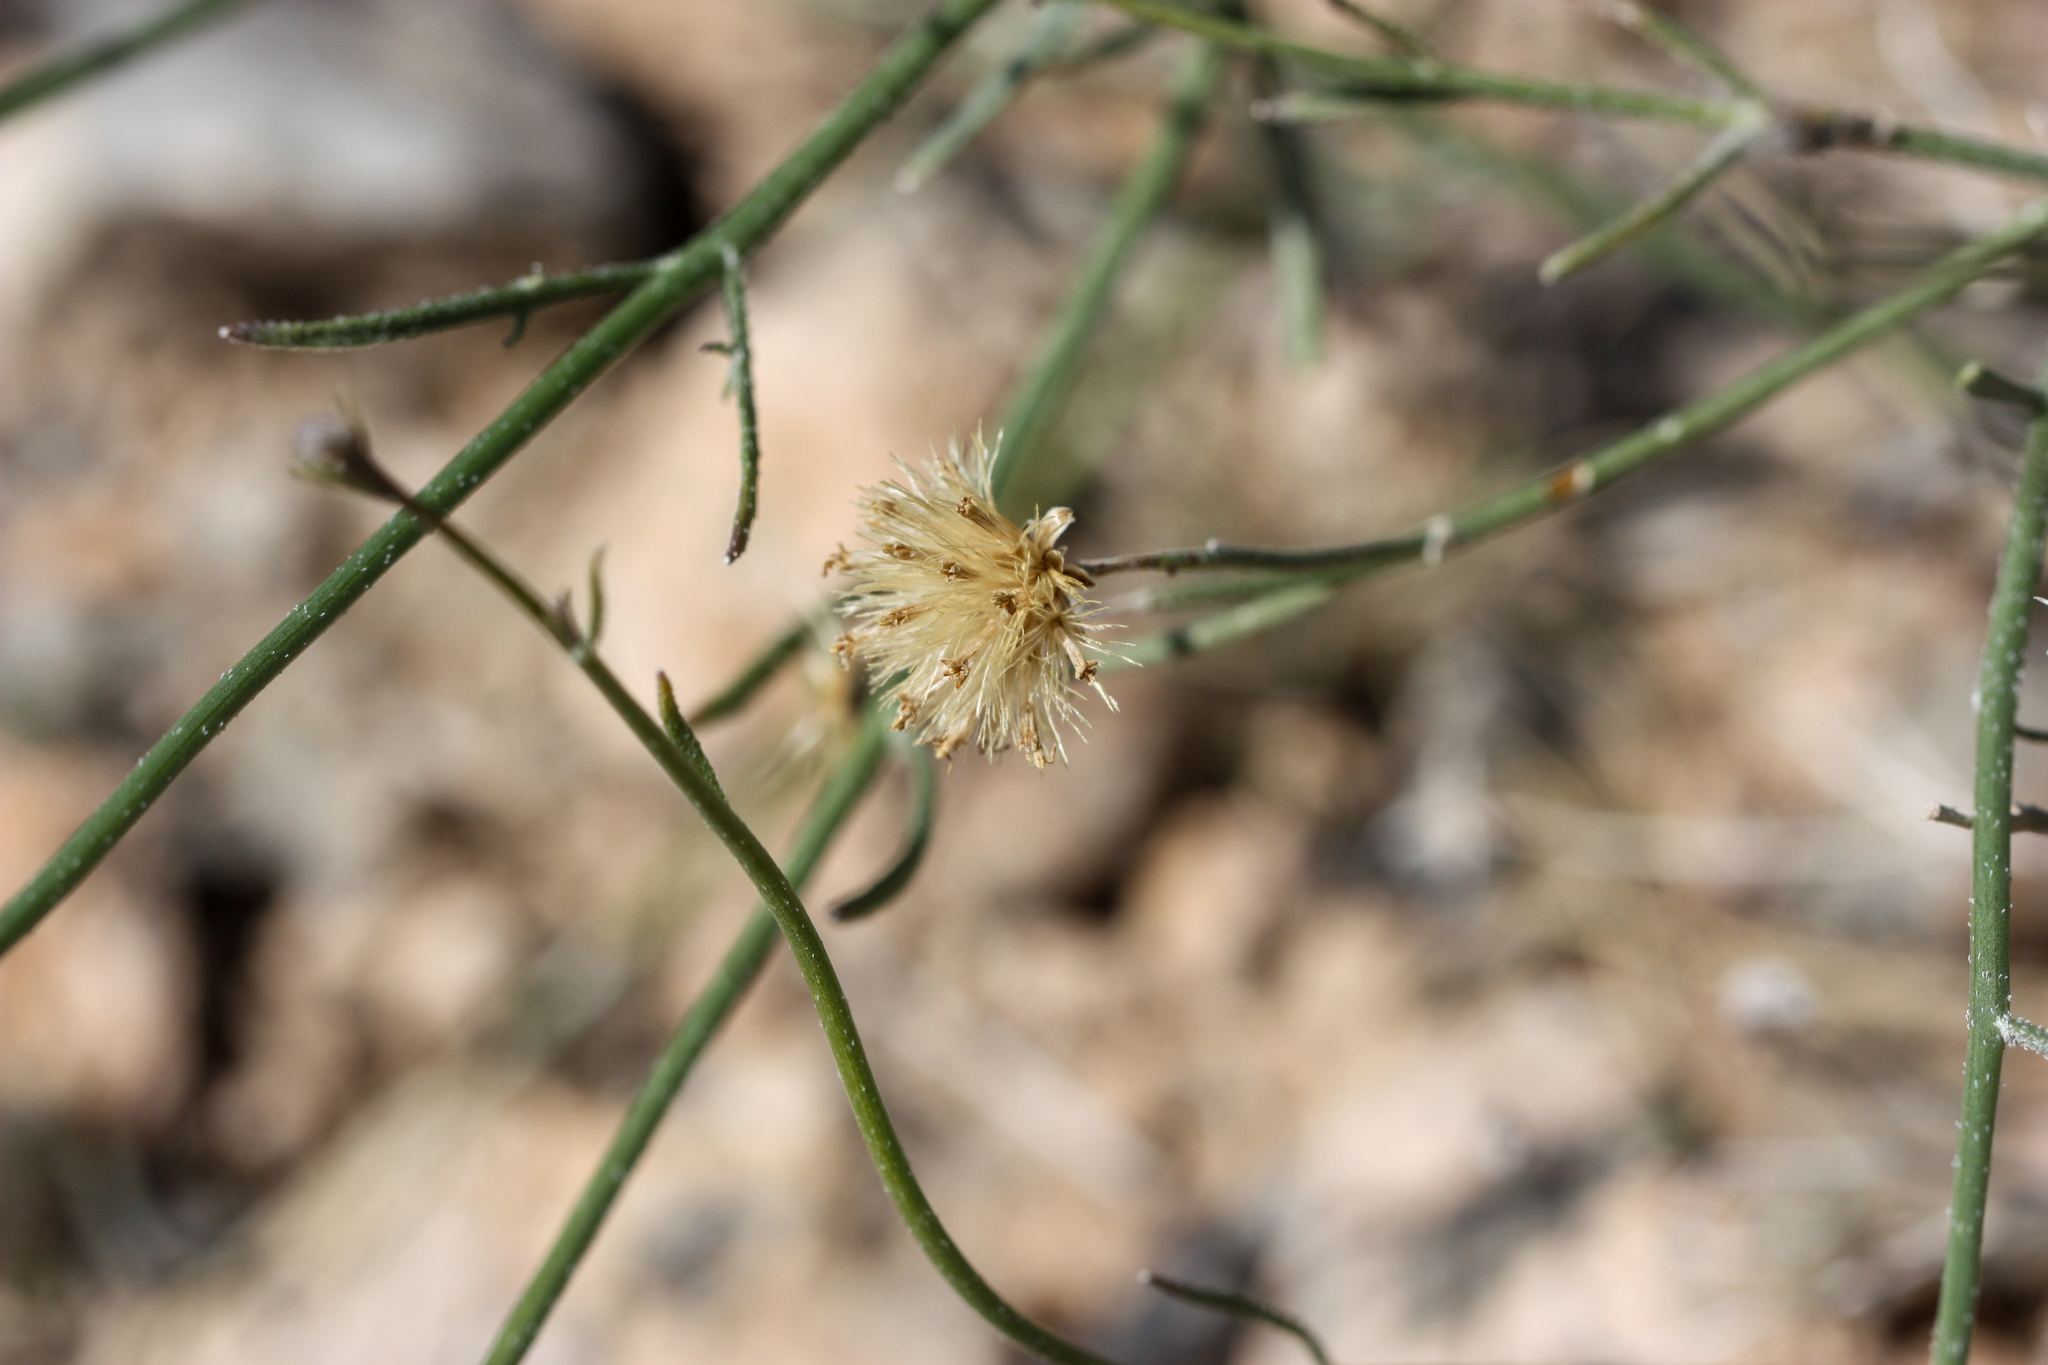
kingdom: Plantae
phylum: Tracheophyta
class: Magnoliopsida
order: Asterales
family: Asteraceae
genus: Bebbia
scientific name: Bebbia juncea
